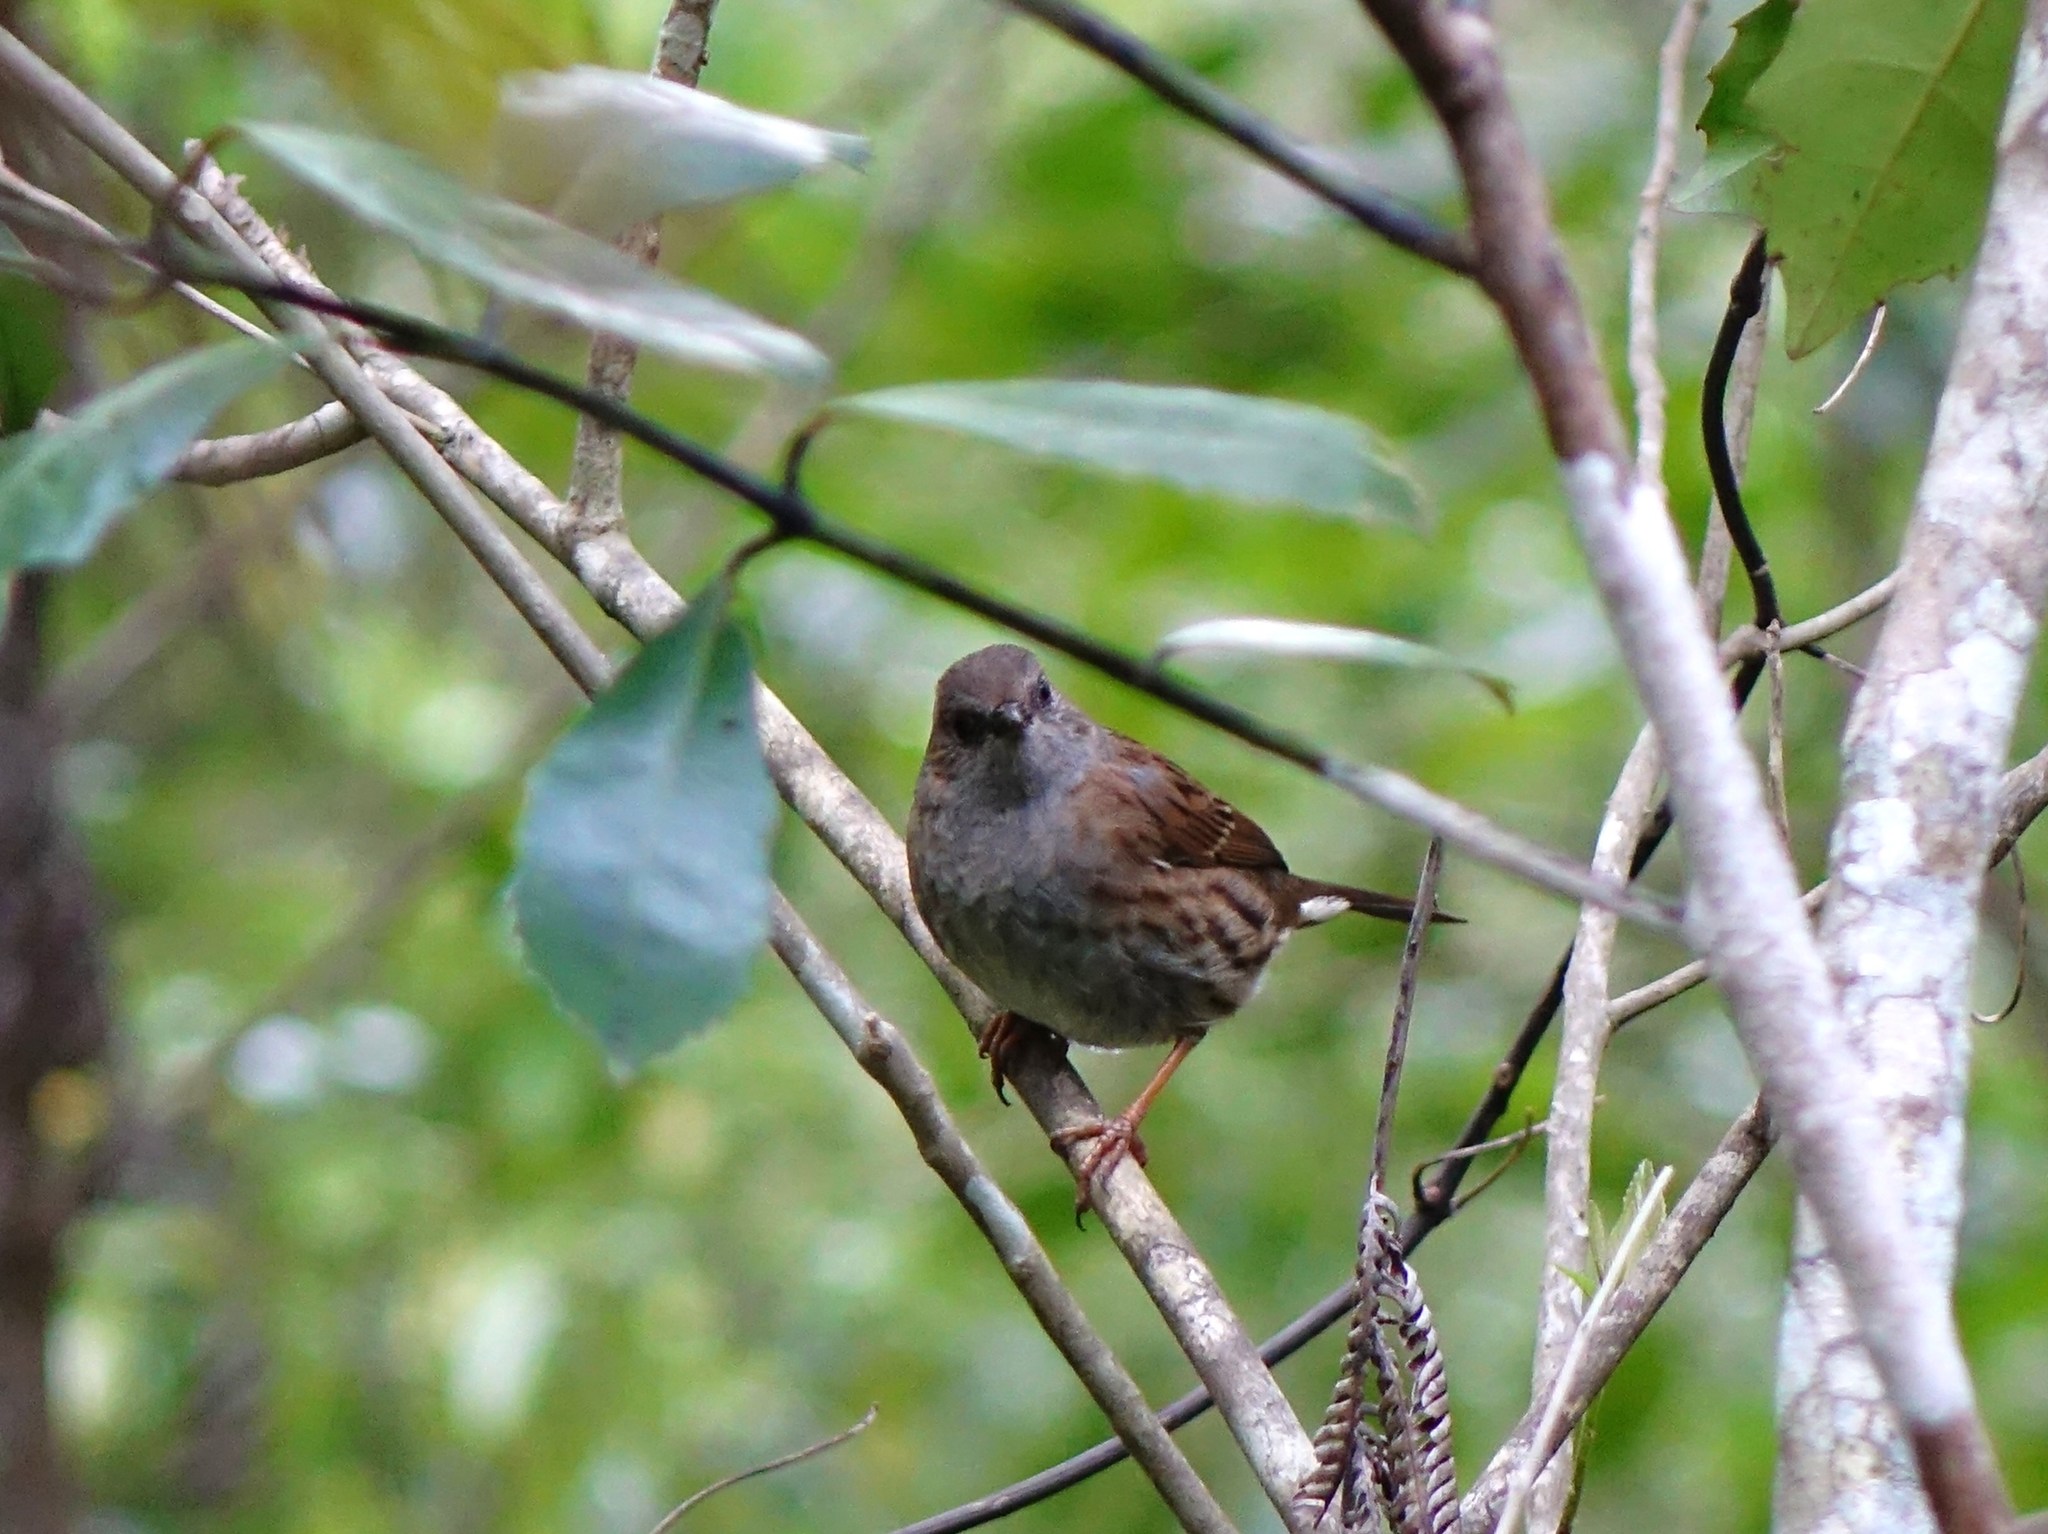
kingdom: Animalia
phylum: Chordata
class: Aves
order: Passeriformes
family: Prunellidae
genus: Prunella
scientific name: Prunella modularis
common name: Dunnock
